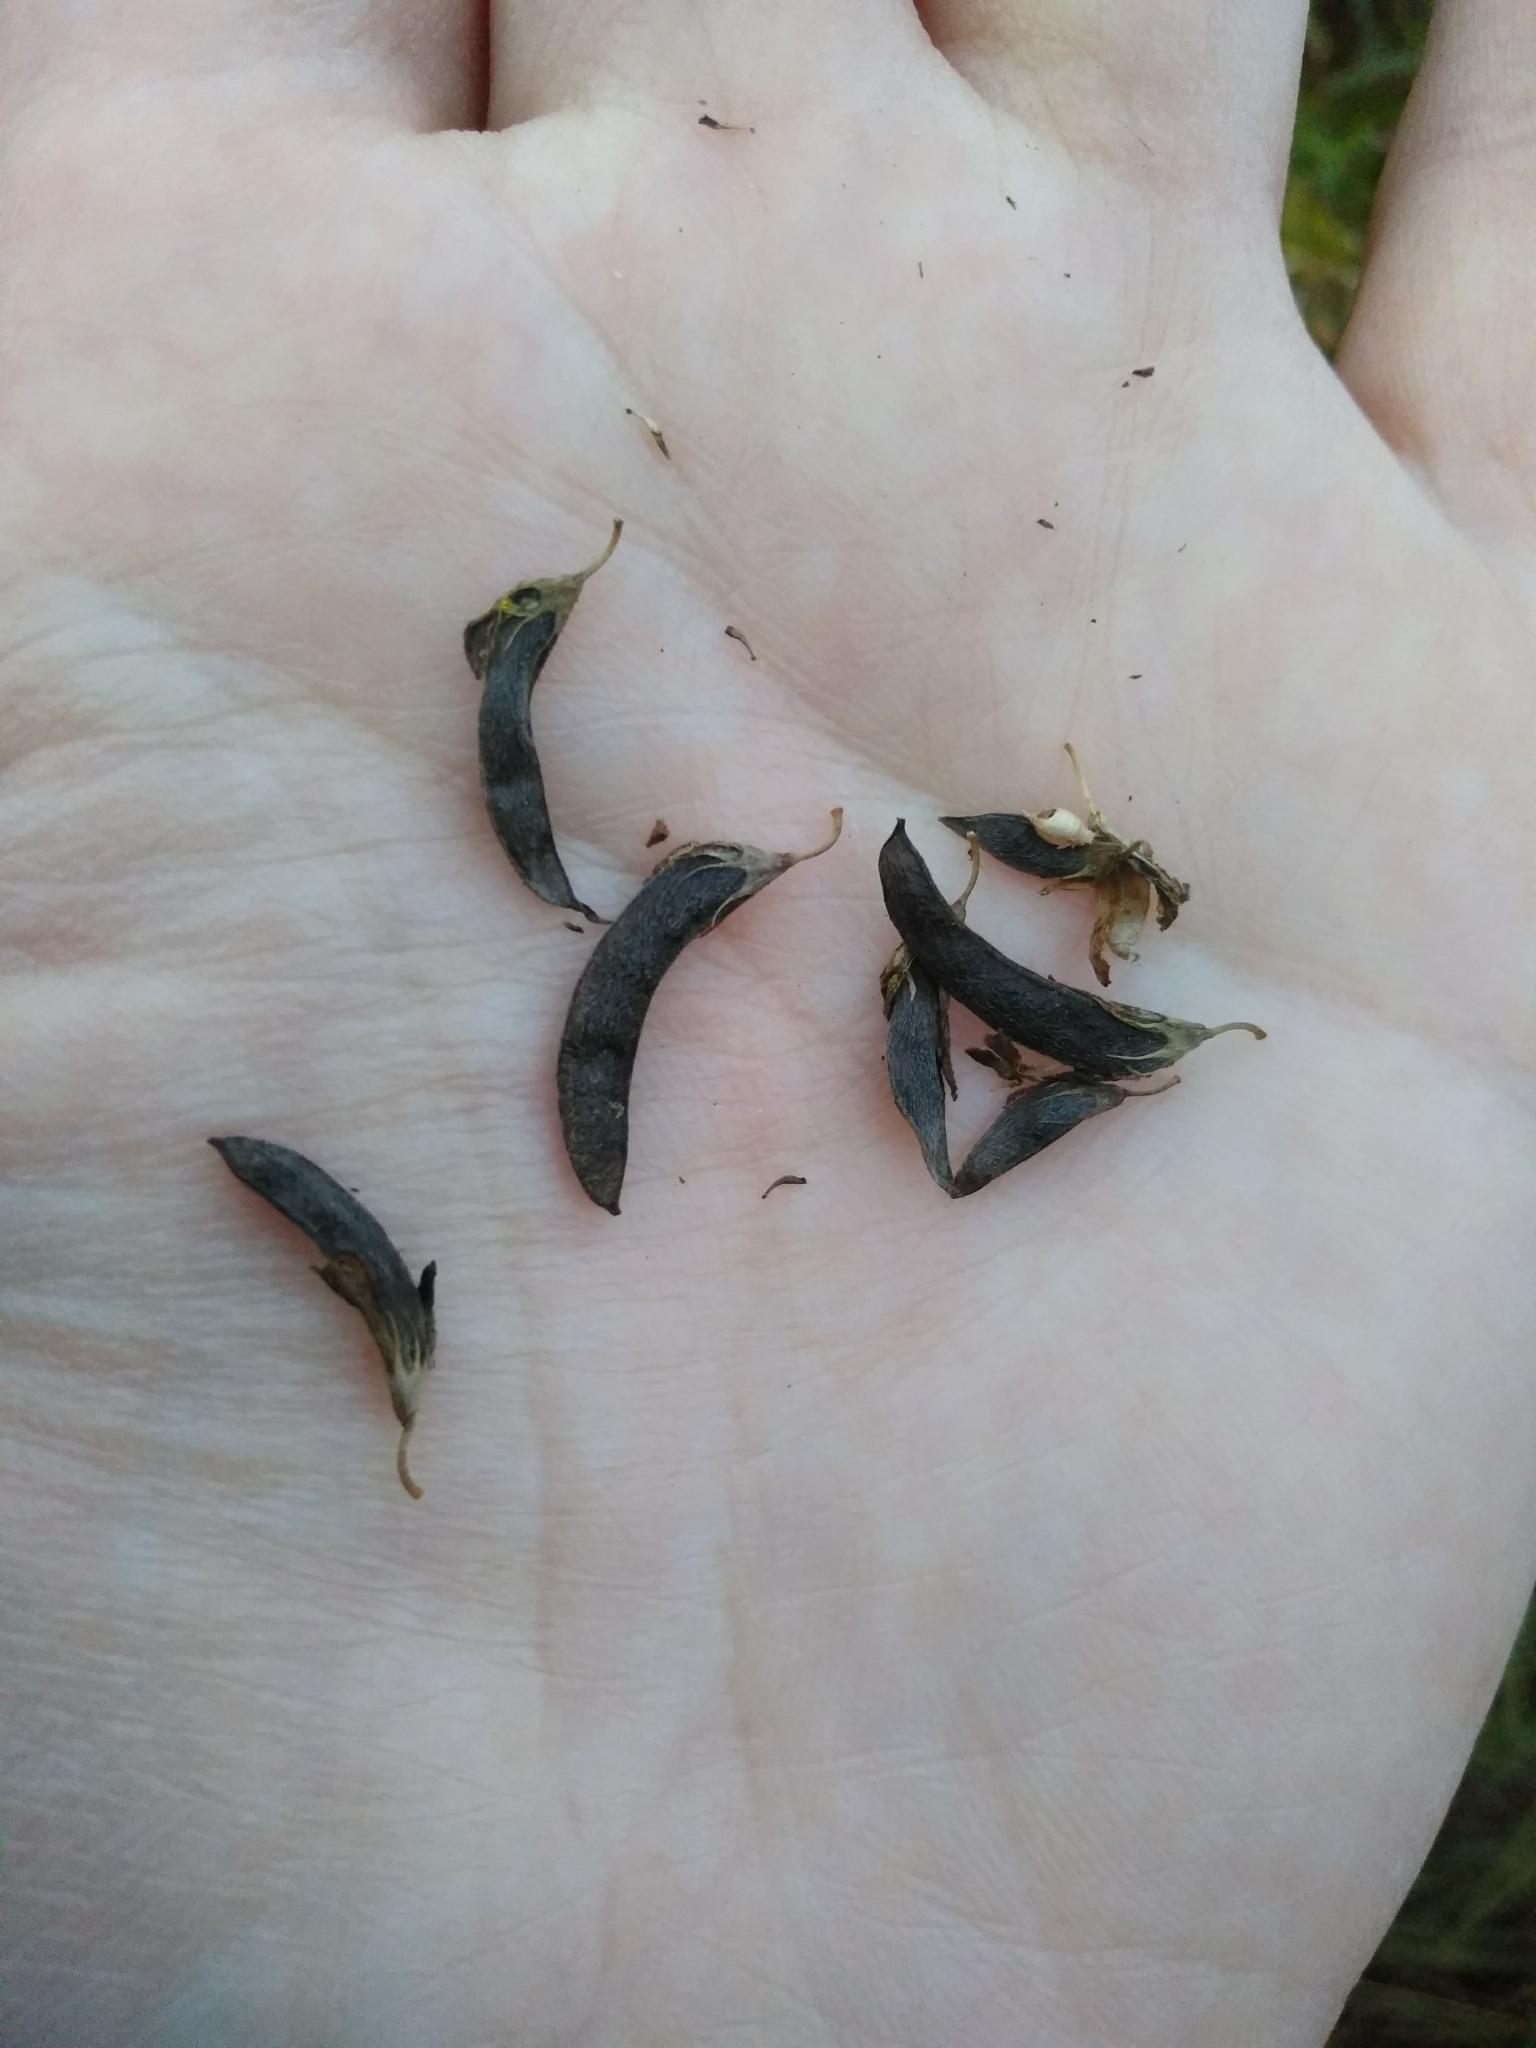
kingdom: Plantae
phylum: Tracheophyta
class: Magnoliopsida
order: Fabales
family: Fabaceae
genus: Medicago
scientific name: Medicago falcata
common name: Sickle medick
